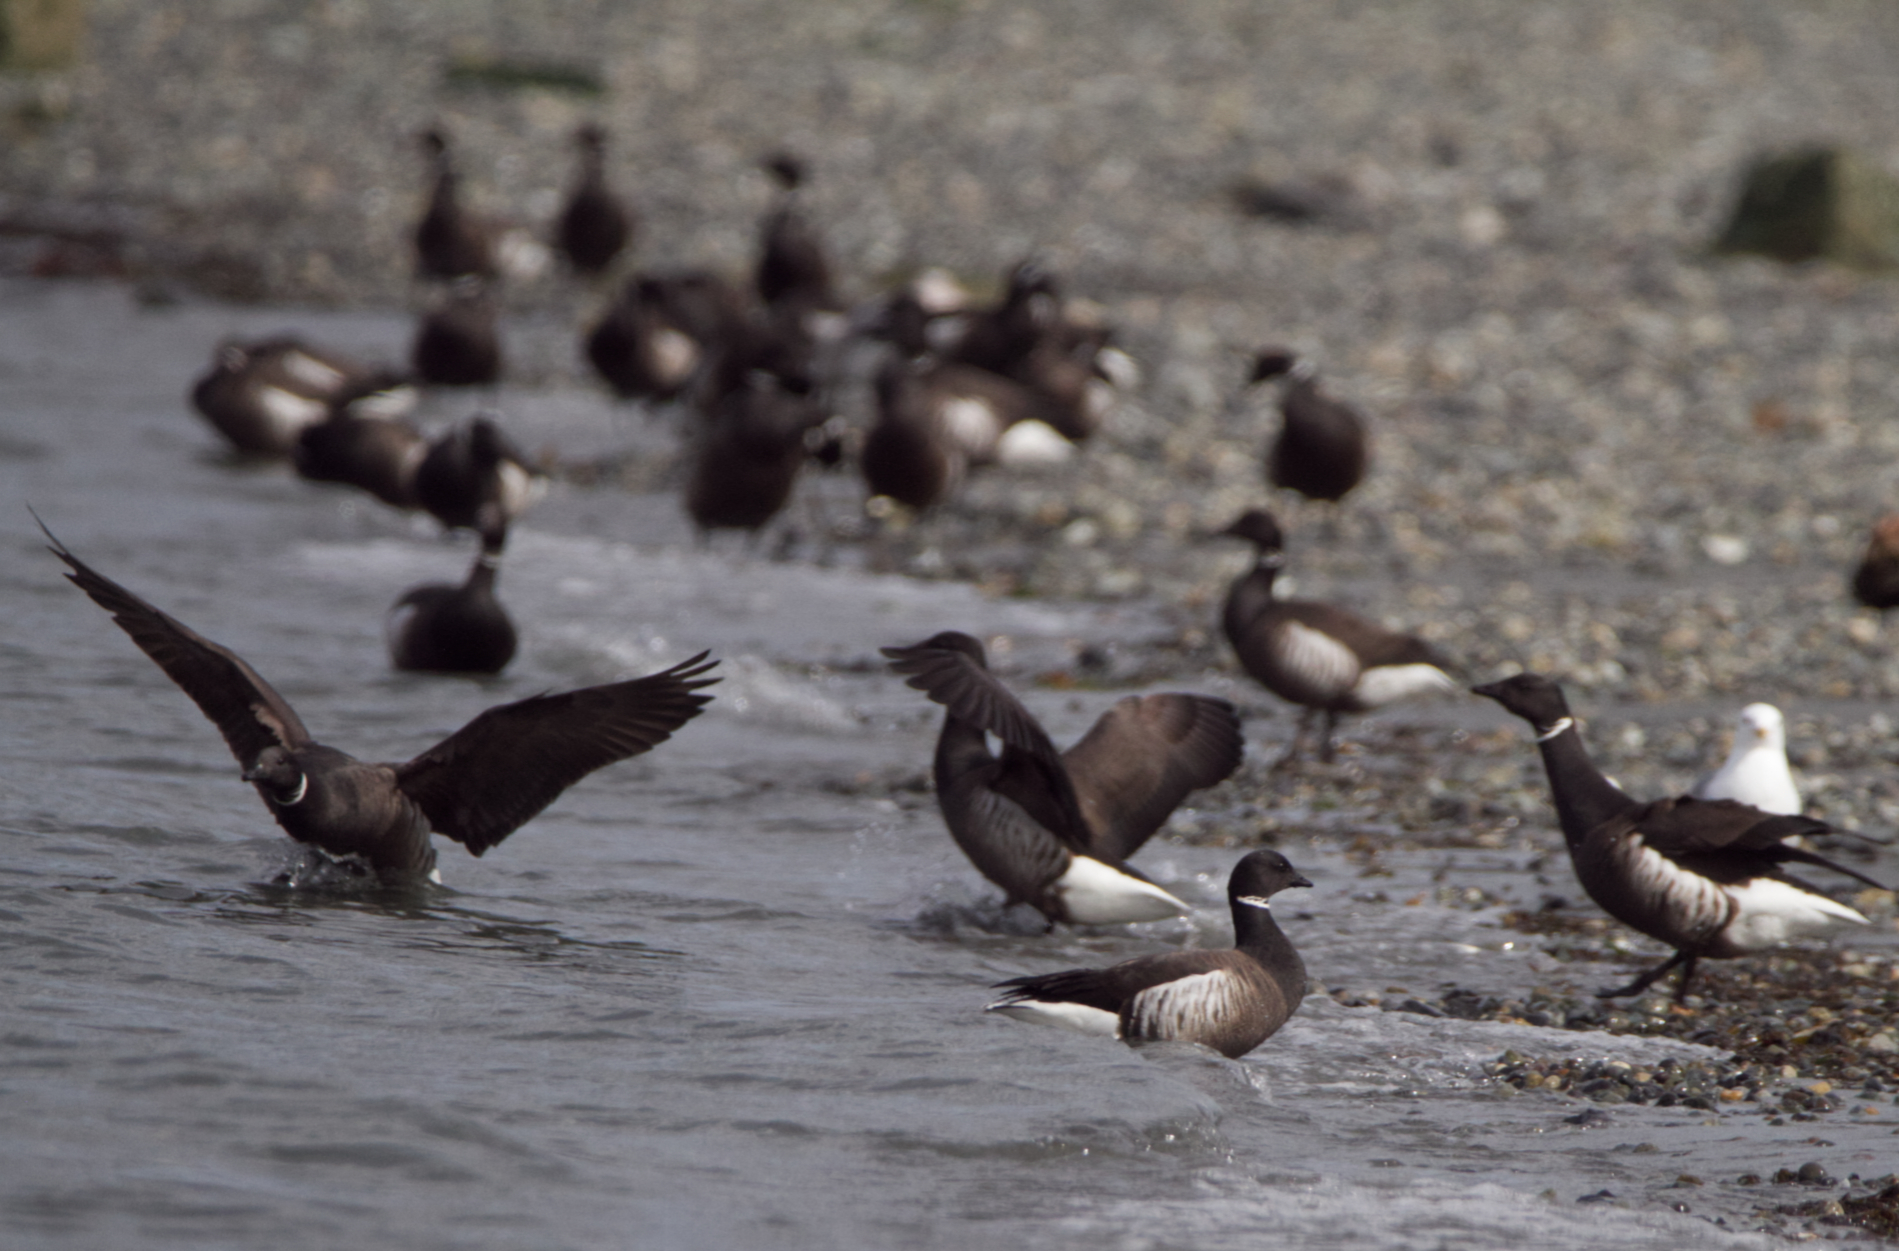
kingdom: Animalia
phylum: Chordata
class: Aves
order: Anseriformes
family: Anatidae
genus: Branta
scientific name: Branta bernicla
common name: Brant goose
